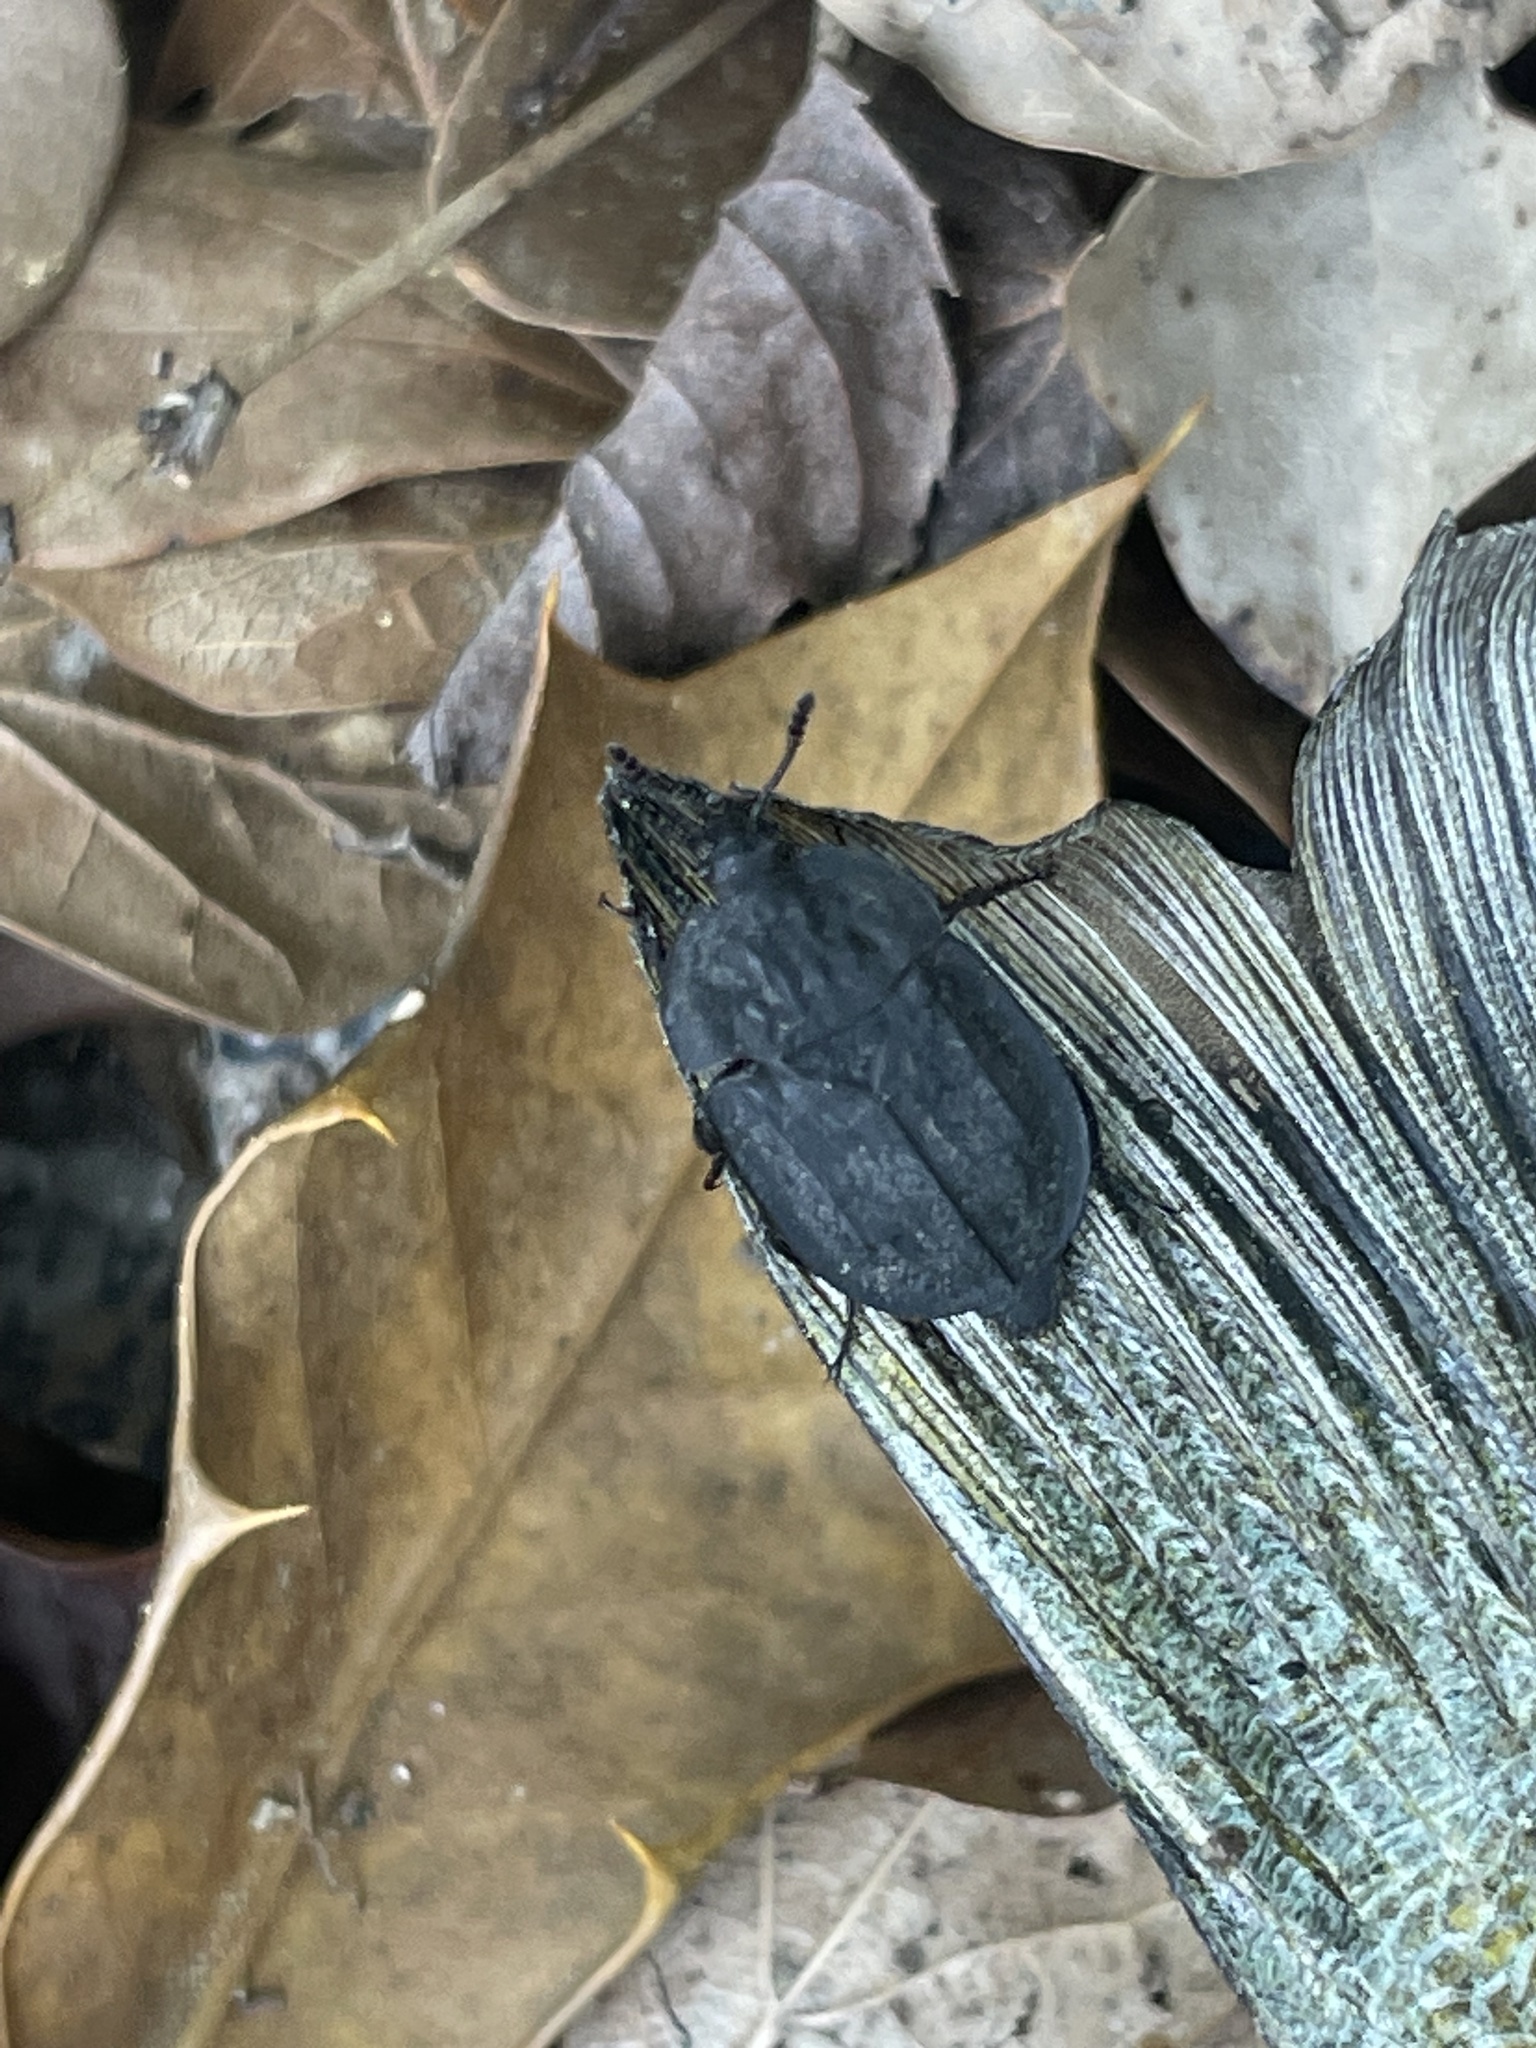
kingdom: Animalia
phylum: Arthropoda
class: Insecta
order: Coleoptera
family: Staphylinidae
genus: Oiceoptoma
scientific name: Oiceoptoma inaequale
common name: Ridged carrion beetle
